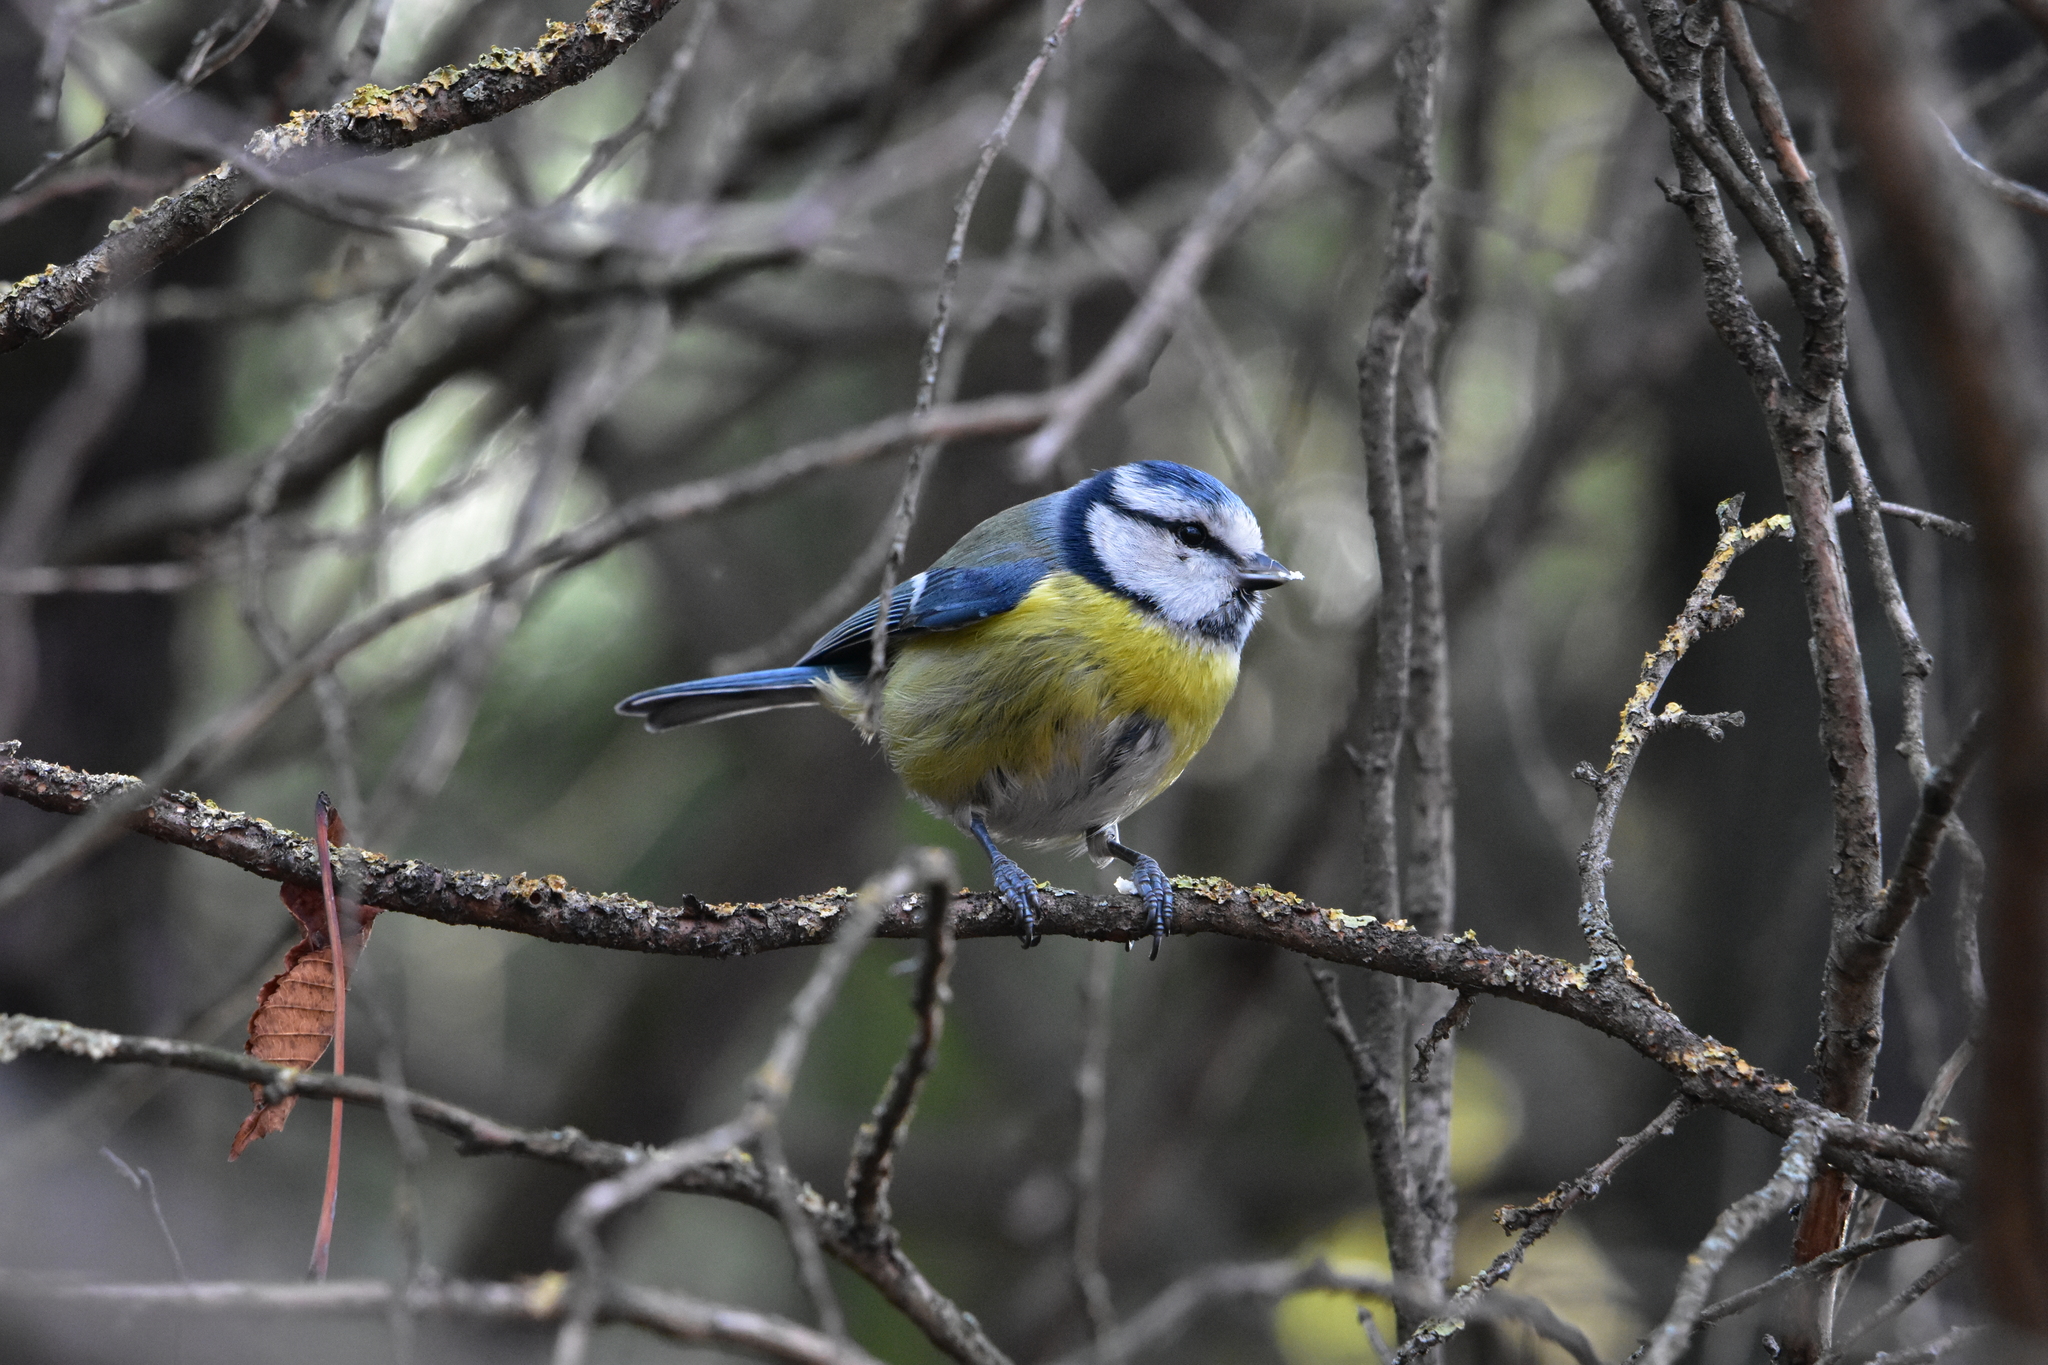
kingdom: Animalia
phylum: Chordata
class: Aves
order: Passeriformes
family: Paridae
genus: Cyanistes
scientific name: Cyanistes caeruleus
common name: Eurasian blue tit
